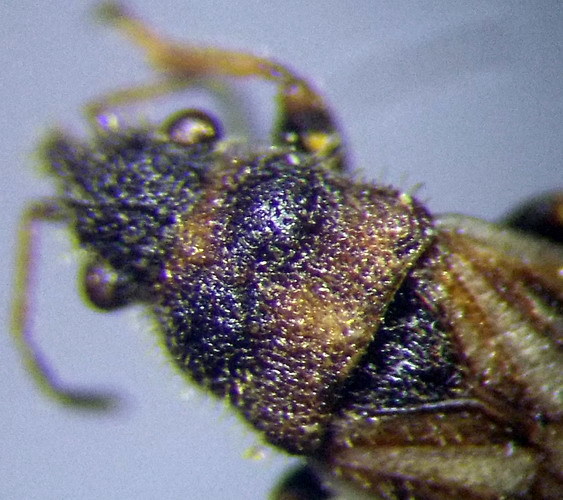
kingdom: Animalia
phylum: Arthropoda
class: Insecta
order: Hemiptera
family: Oxycarenidae
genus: Camptotelus
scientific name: Camptotelus lineolatus
